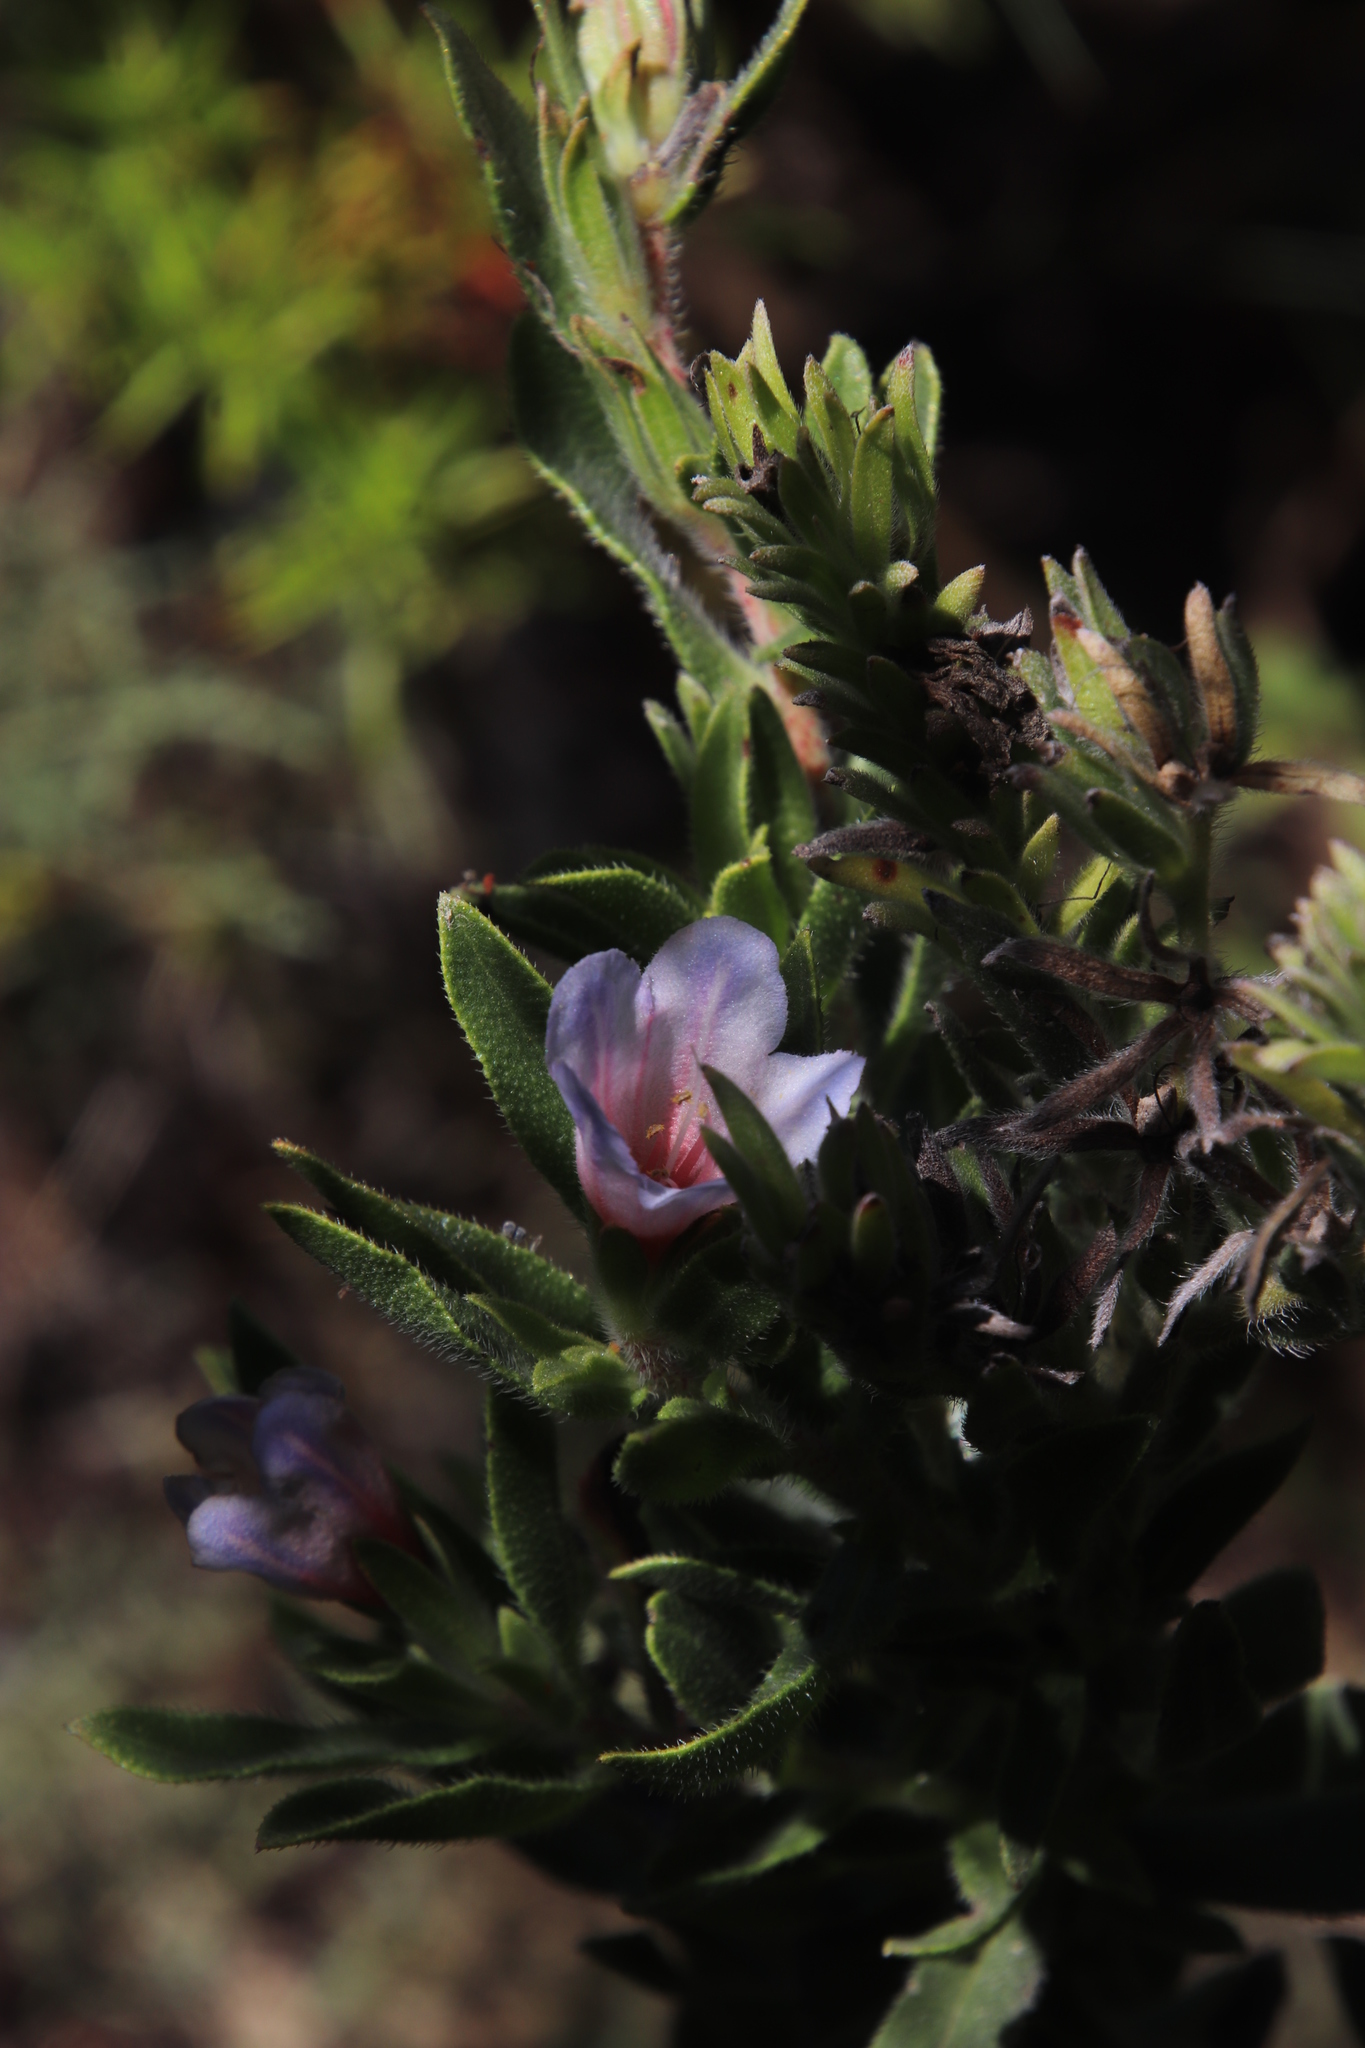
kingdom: Plantae
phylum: Tracheophyta
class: Magnoliopsida
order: Boraginales
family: Boraginaceae
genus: Lobostemon
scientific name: Lobostemon fruticosus
